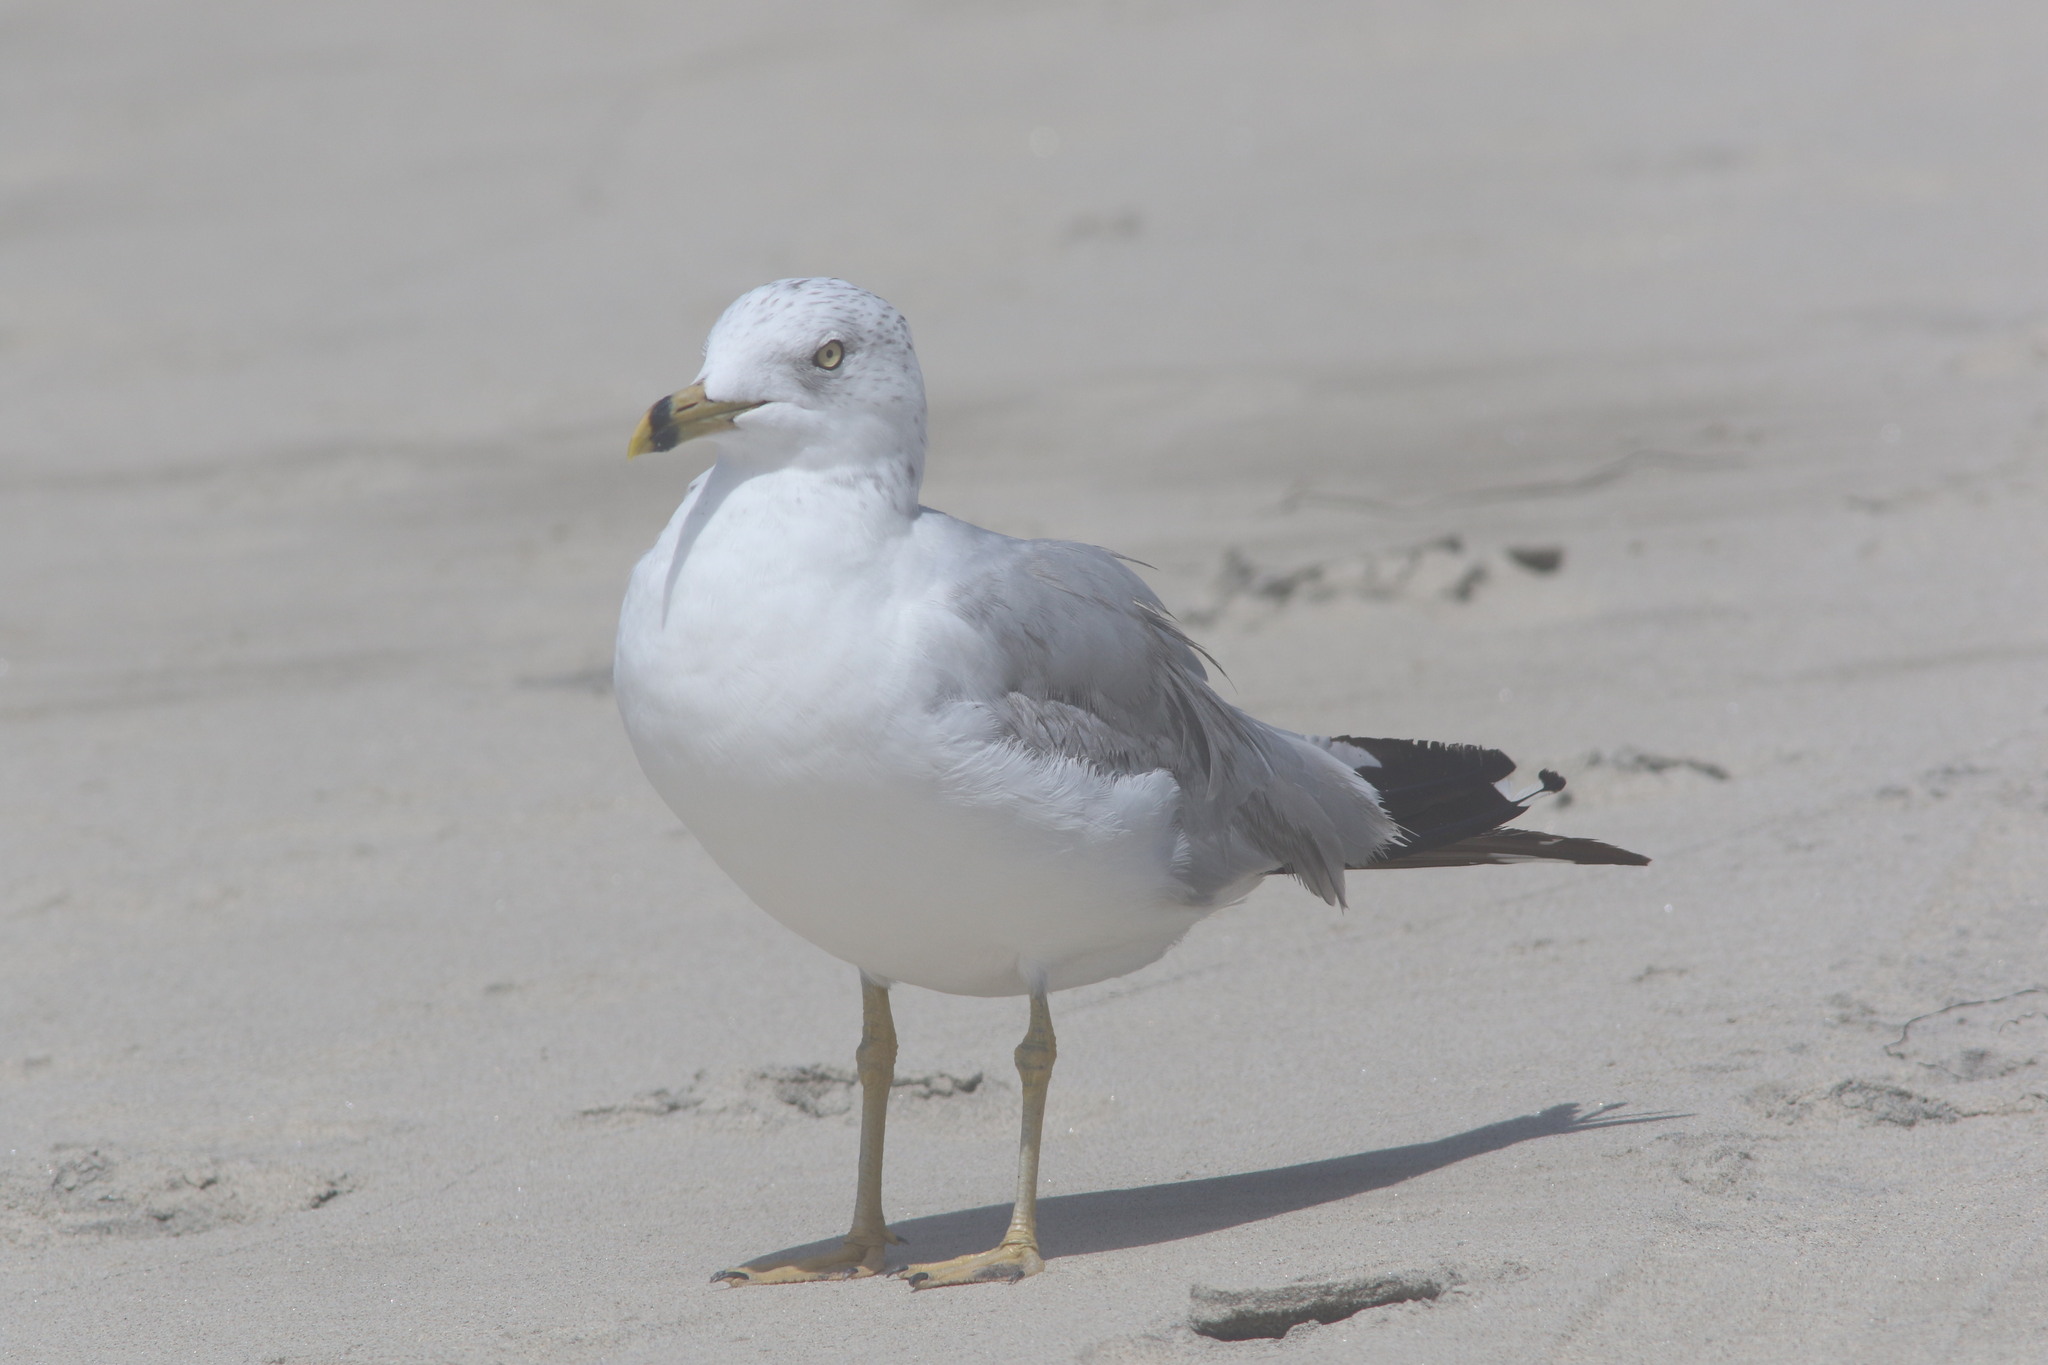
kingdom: Animalia
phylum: Chordata
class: Aves
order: Charadriiformes
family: Laridae
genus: Larus
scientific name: Larus delawarensis
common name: Ring-billed gull
